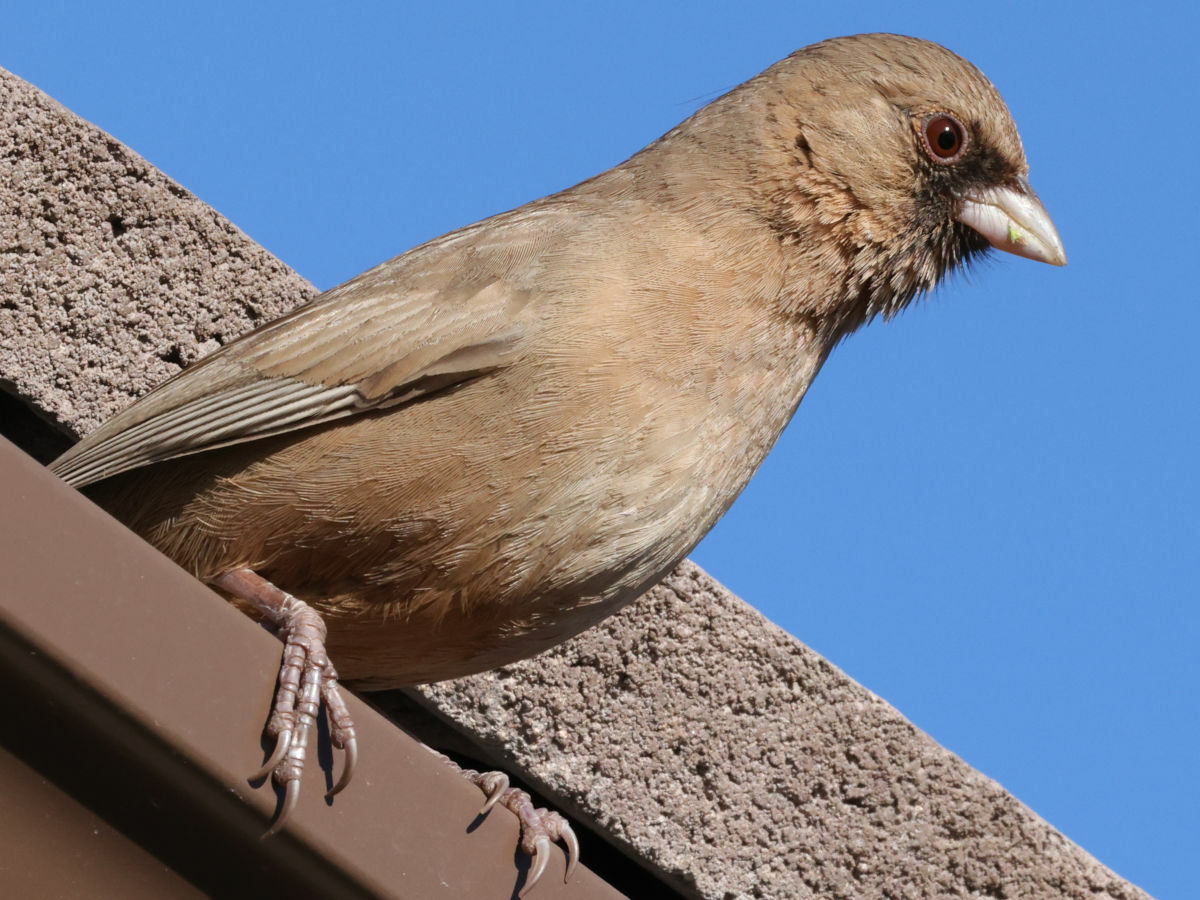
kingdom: Animalia
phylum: Chordata
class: Aves
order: Passeriformes
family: Passerellidae
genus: Melozone
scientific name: Melozone aberti
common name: Abert's towhee
